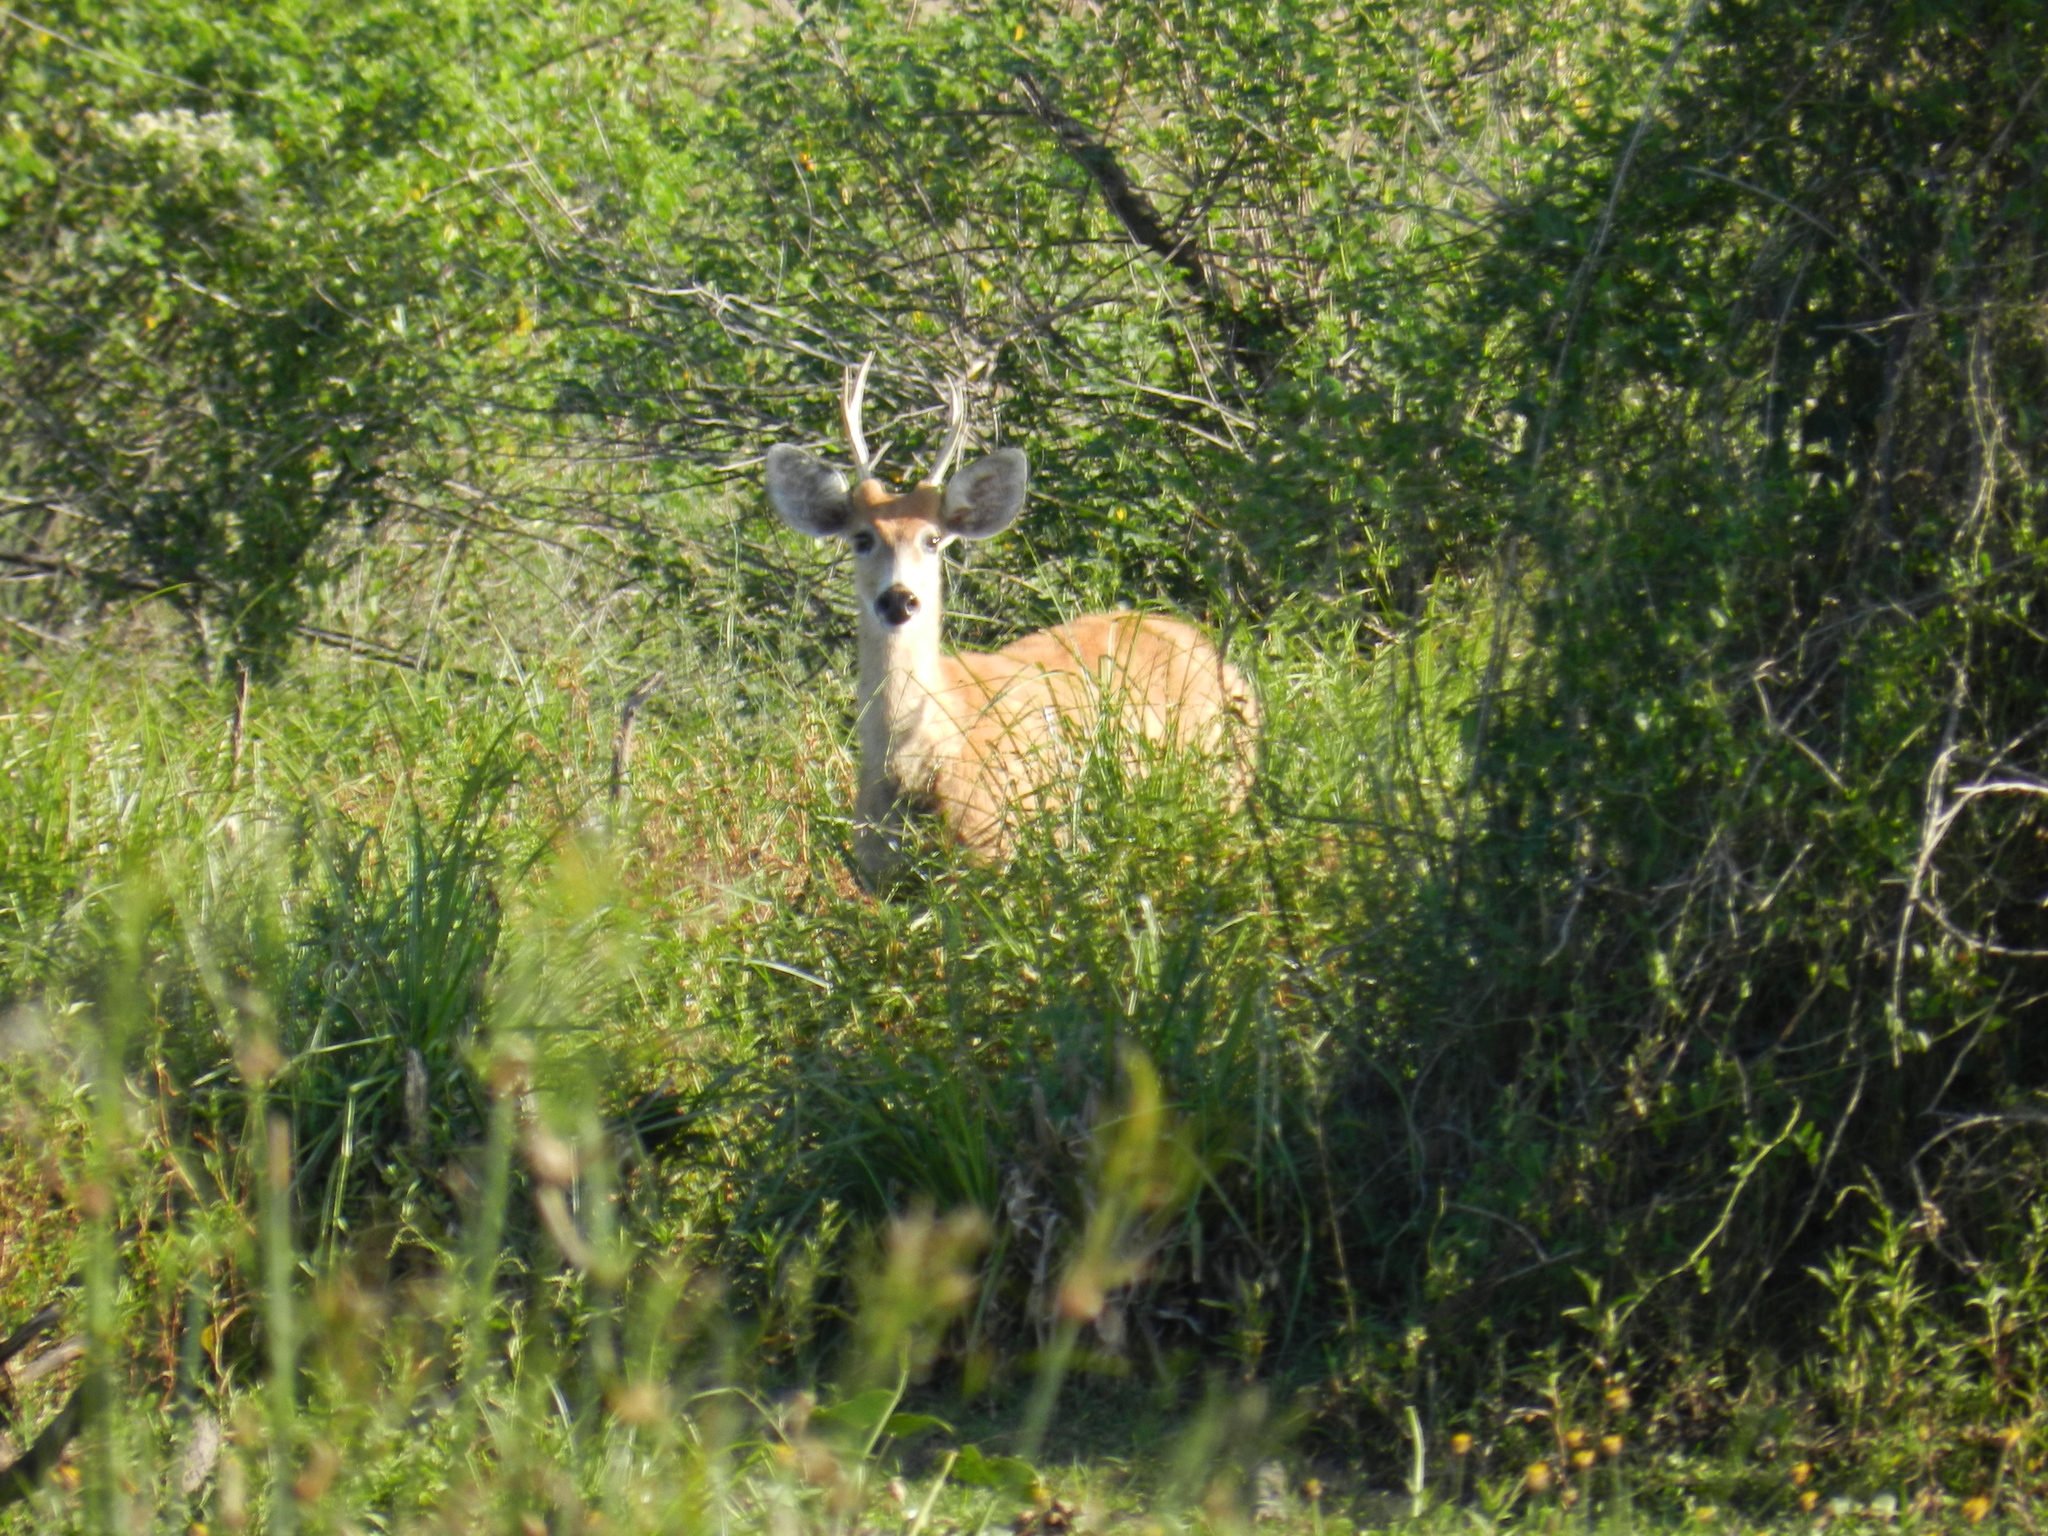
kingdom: Animalia
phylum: Chordata
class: Mammalia
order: Artiodactyla
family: Cervidae
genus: Blastocerus
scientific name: Blastocerus dichotomus
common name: Marsh deer
